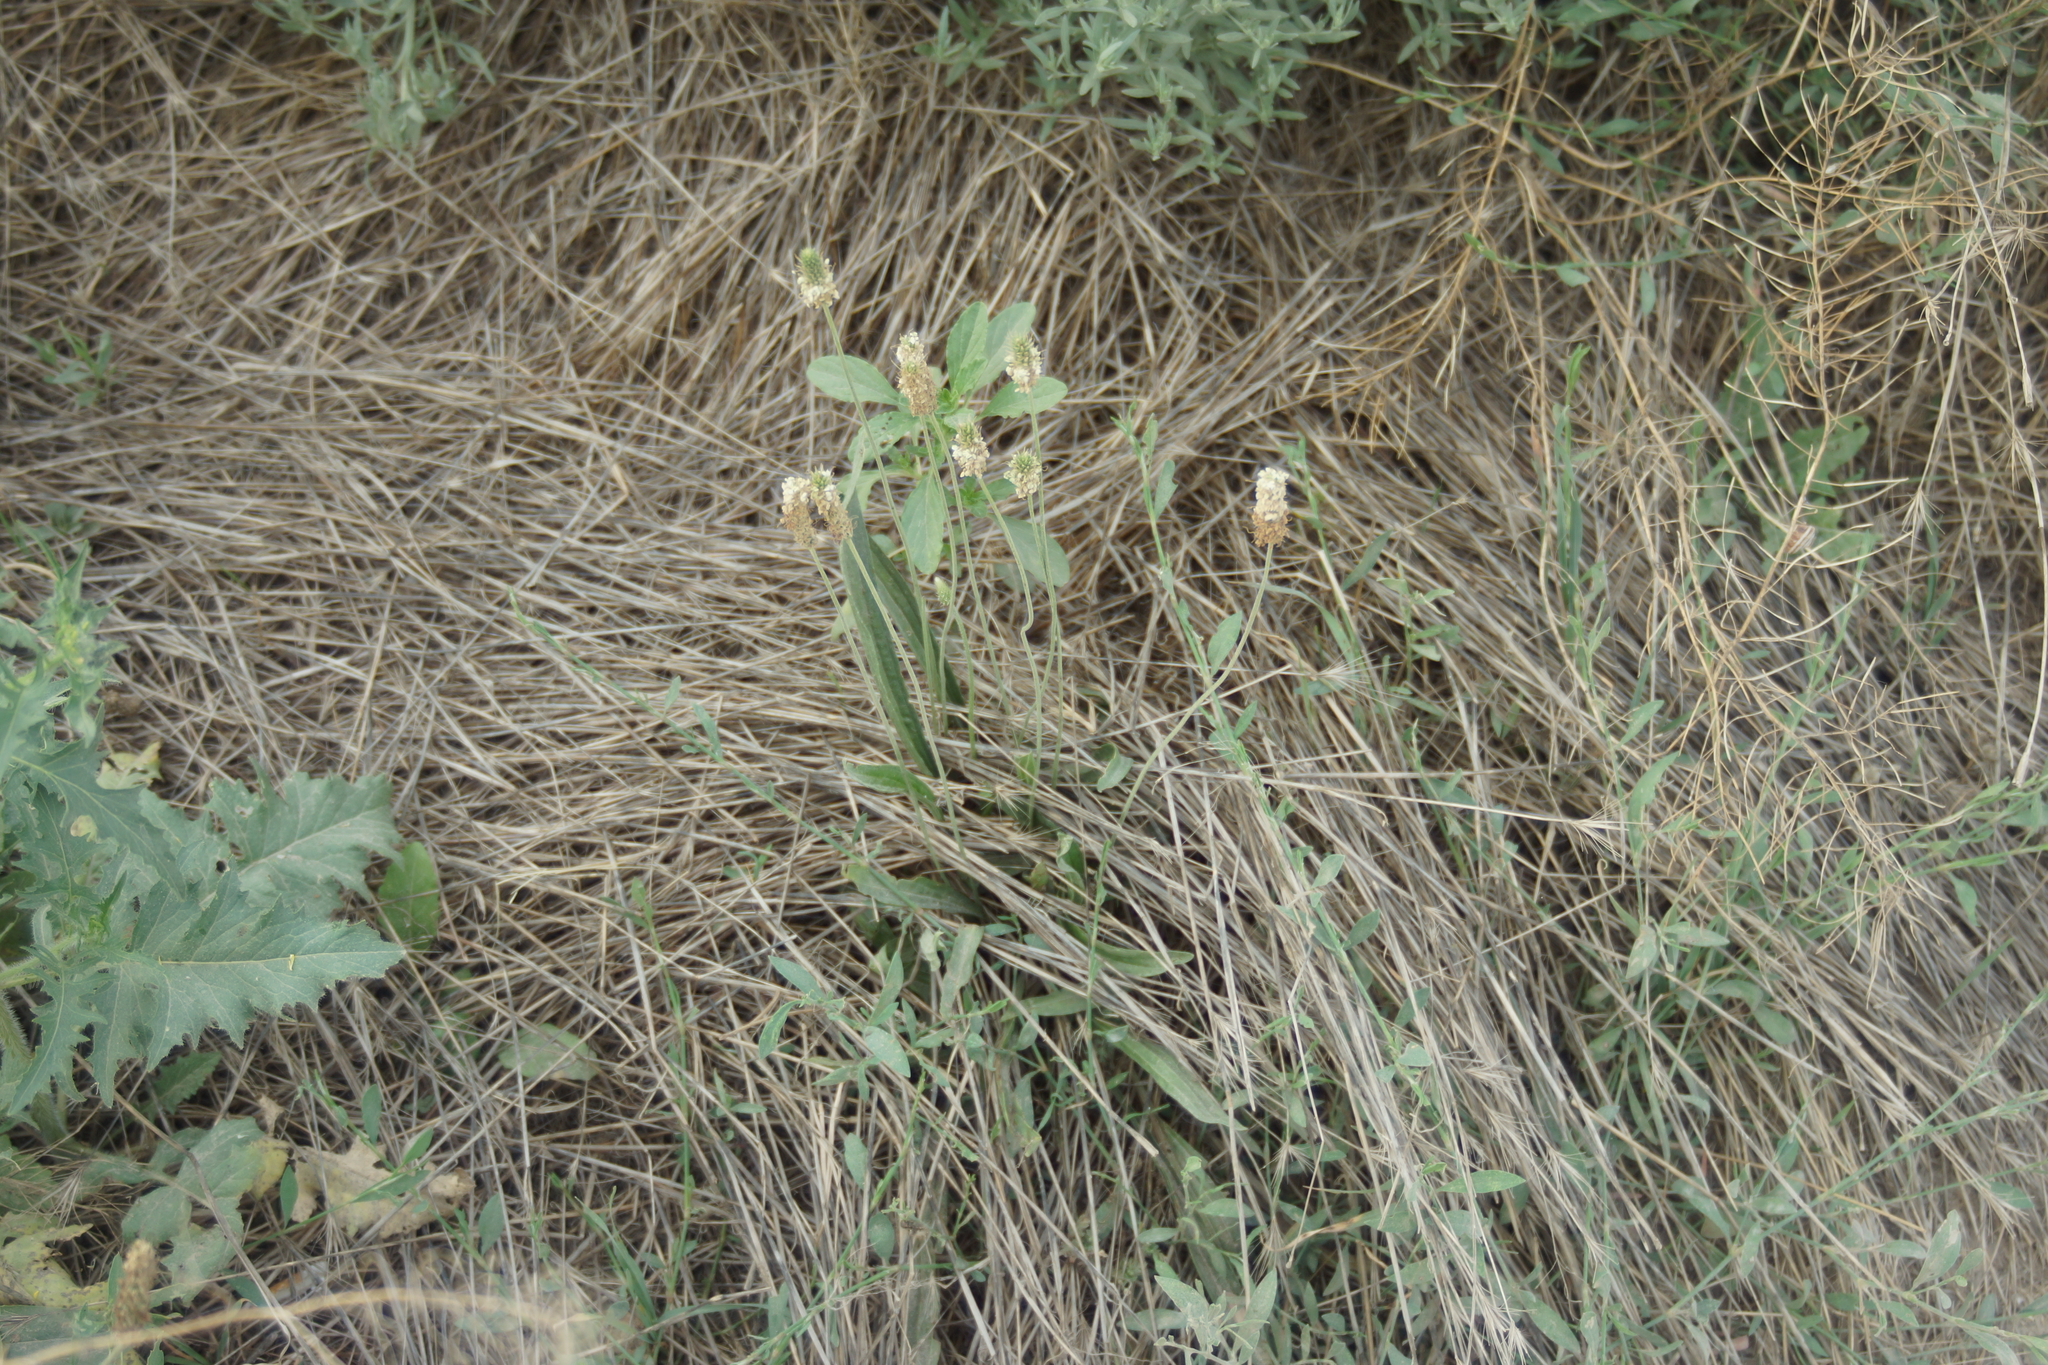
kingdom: Plantae
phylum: Tracheophyta
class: Magnoliopsida
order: Lamiales
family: Plantaginaceae
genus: Plantago
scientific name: Plantago lanceolata
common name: Ribwort plantain
